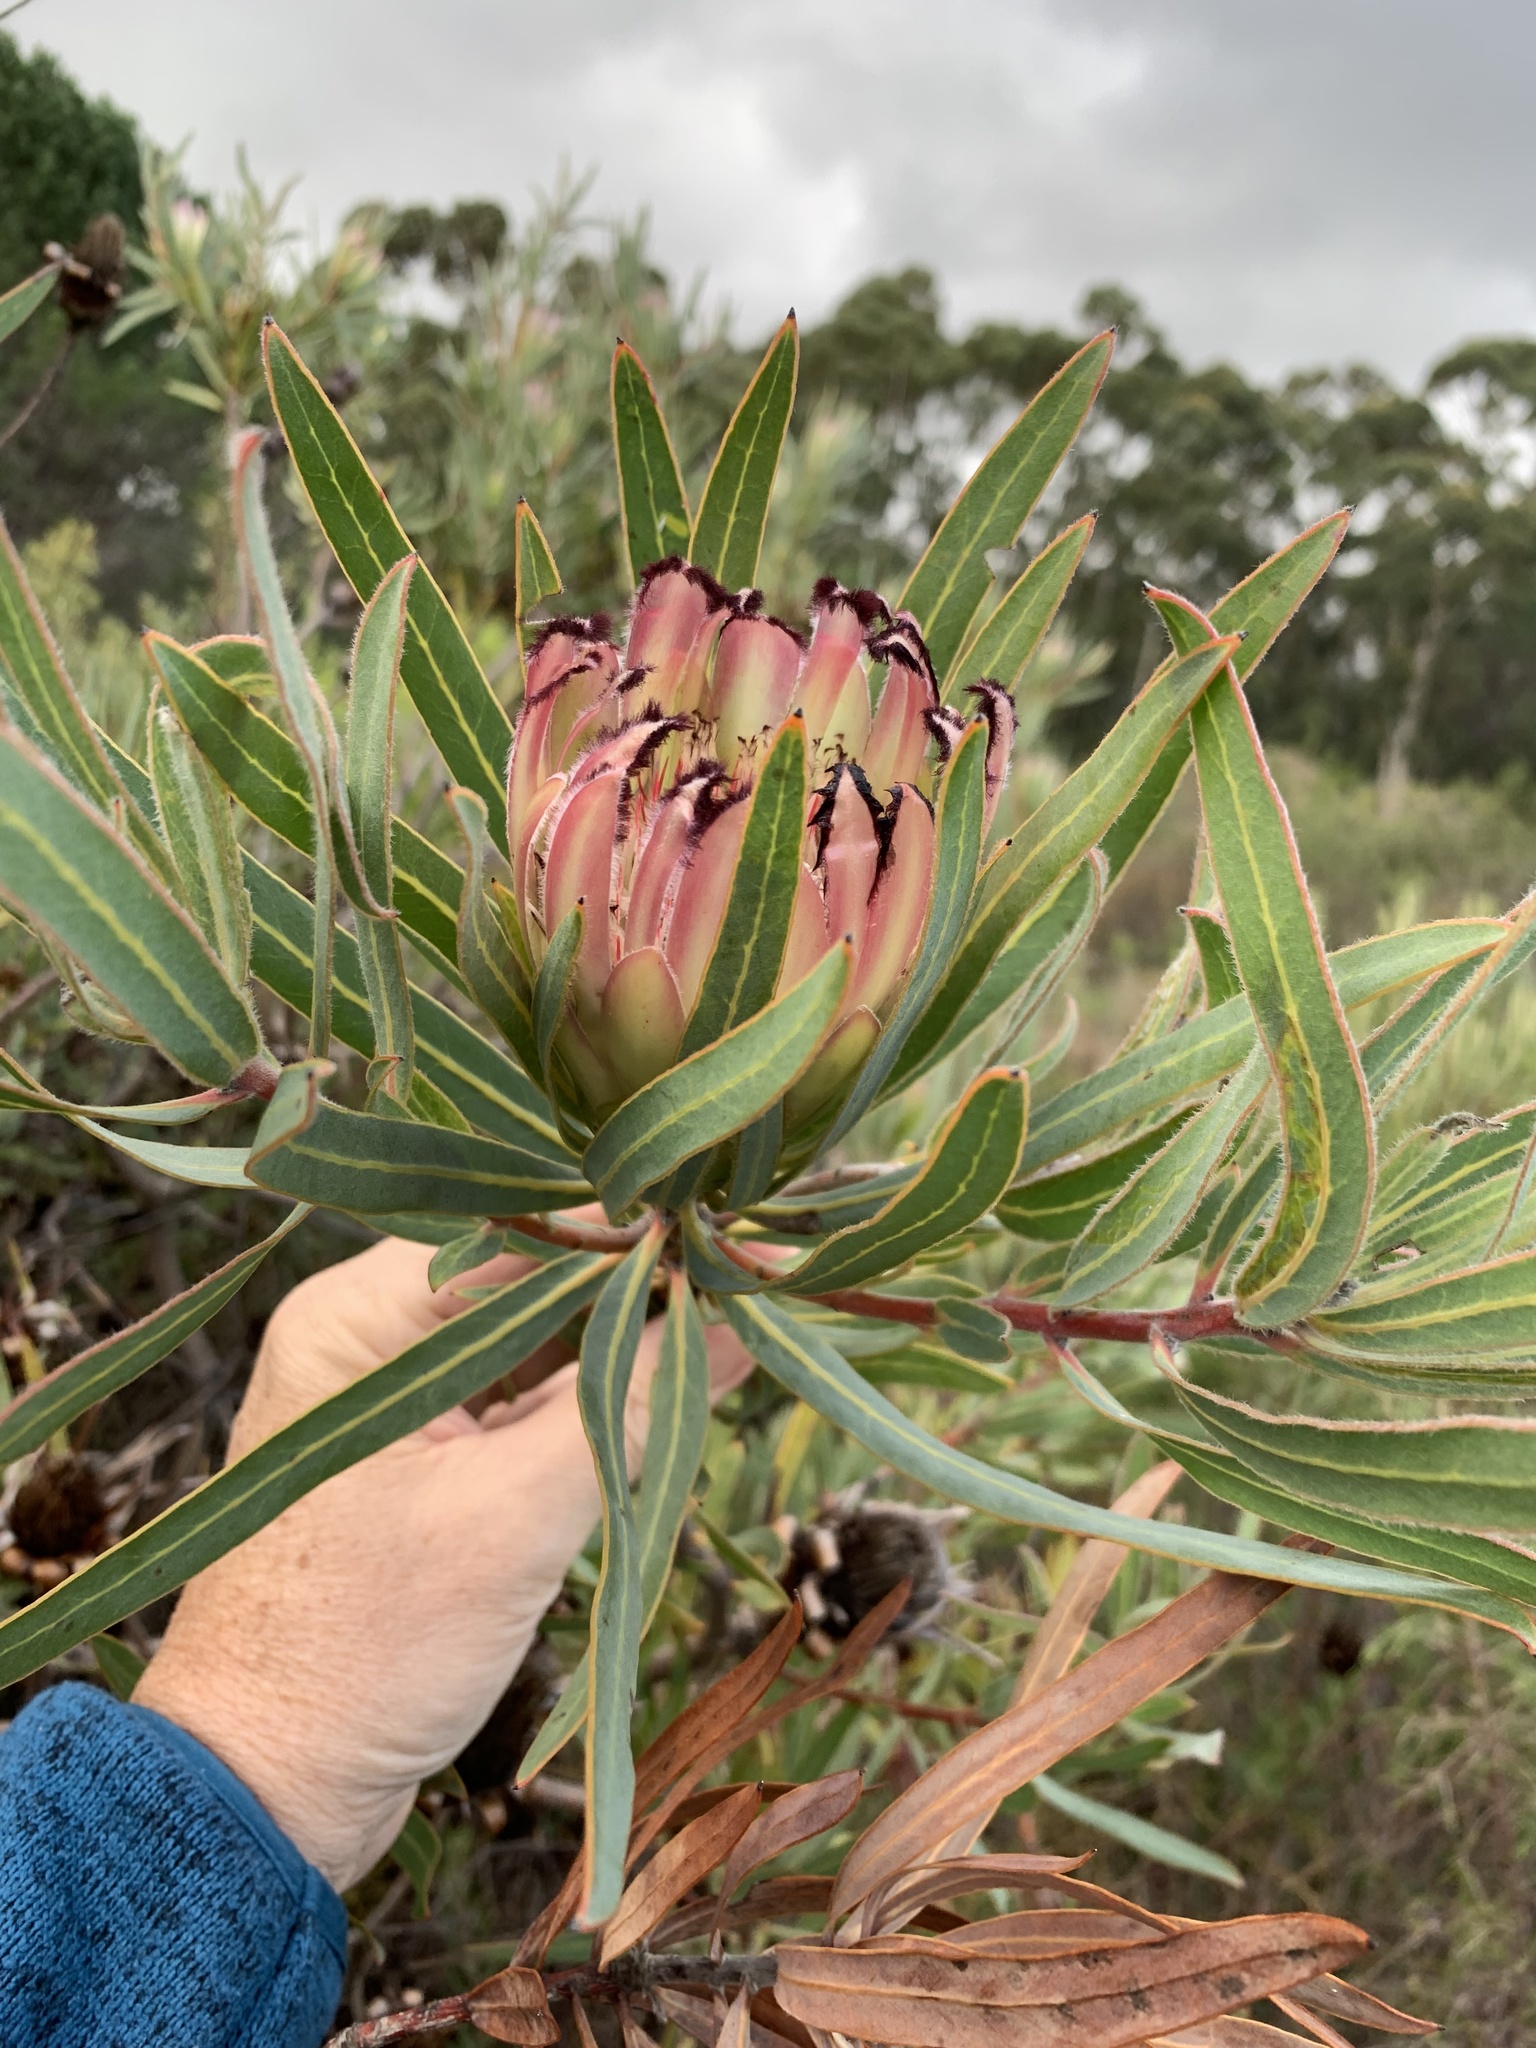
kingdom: Plantae
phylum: Tracheophyta
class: Magnoliopsida
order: Proteales
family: Proteaceae
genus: Protea
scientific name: Protea burchellii
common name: Burchell's sugarbush
